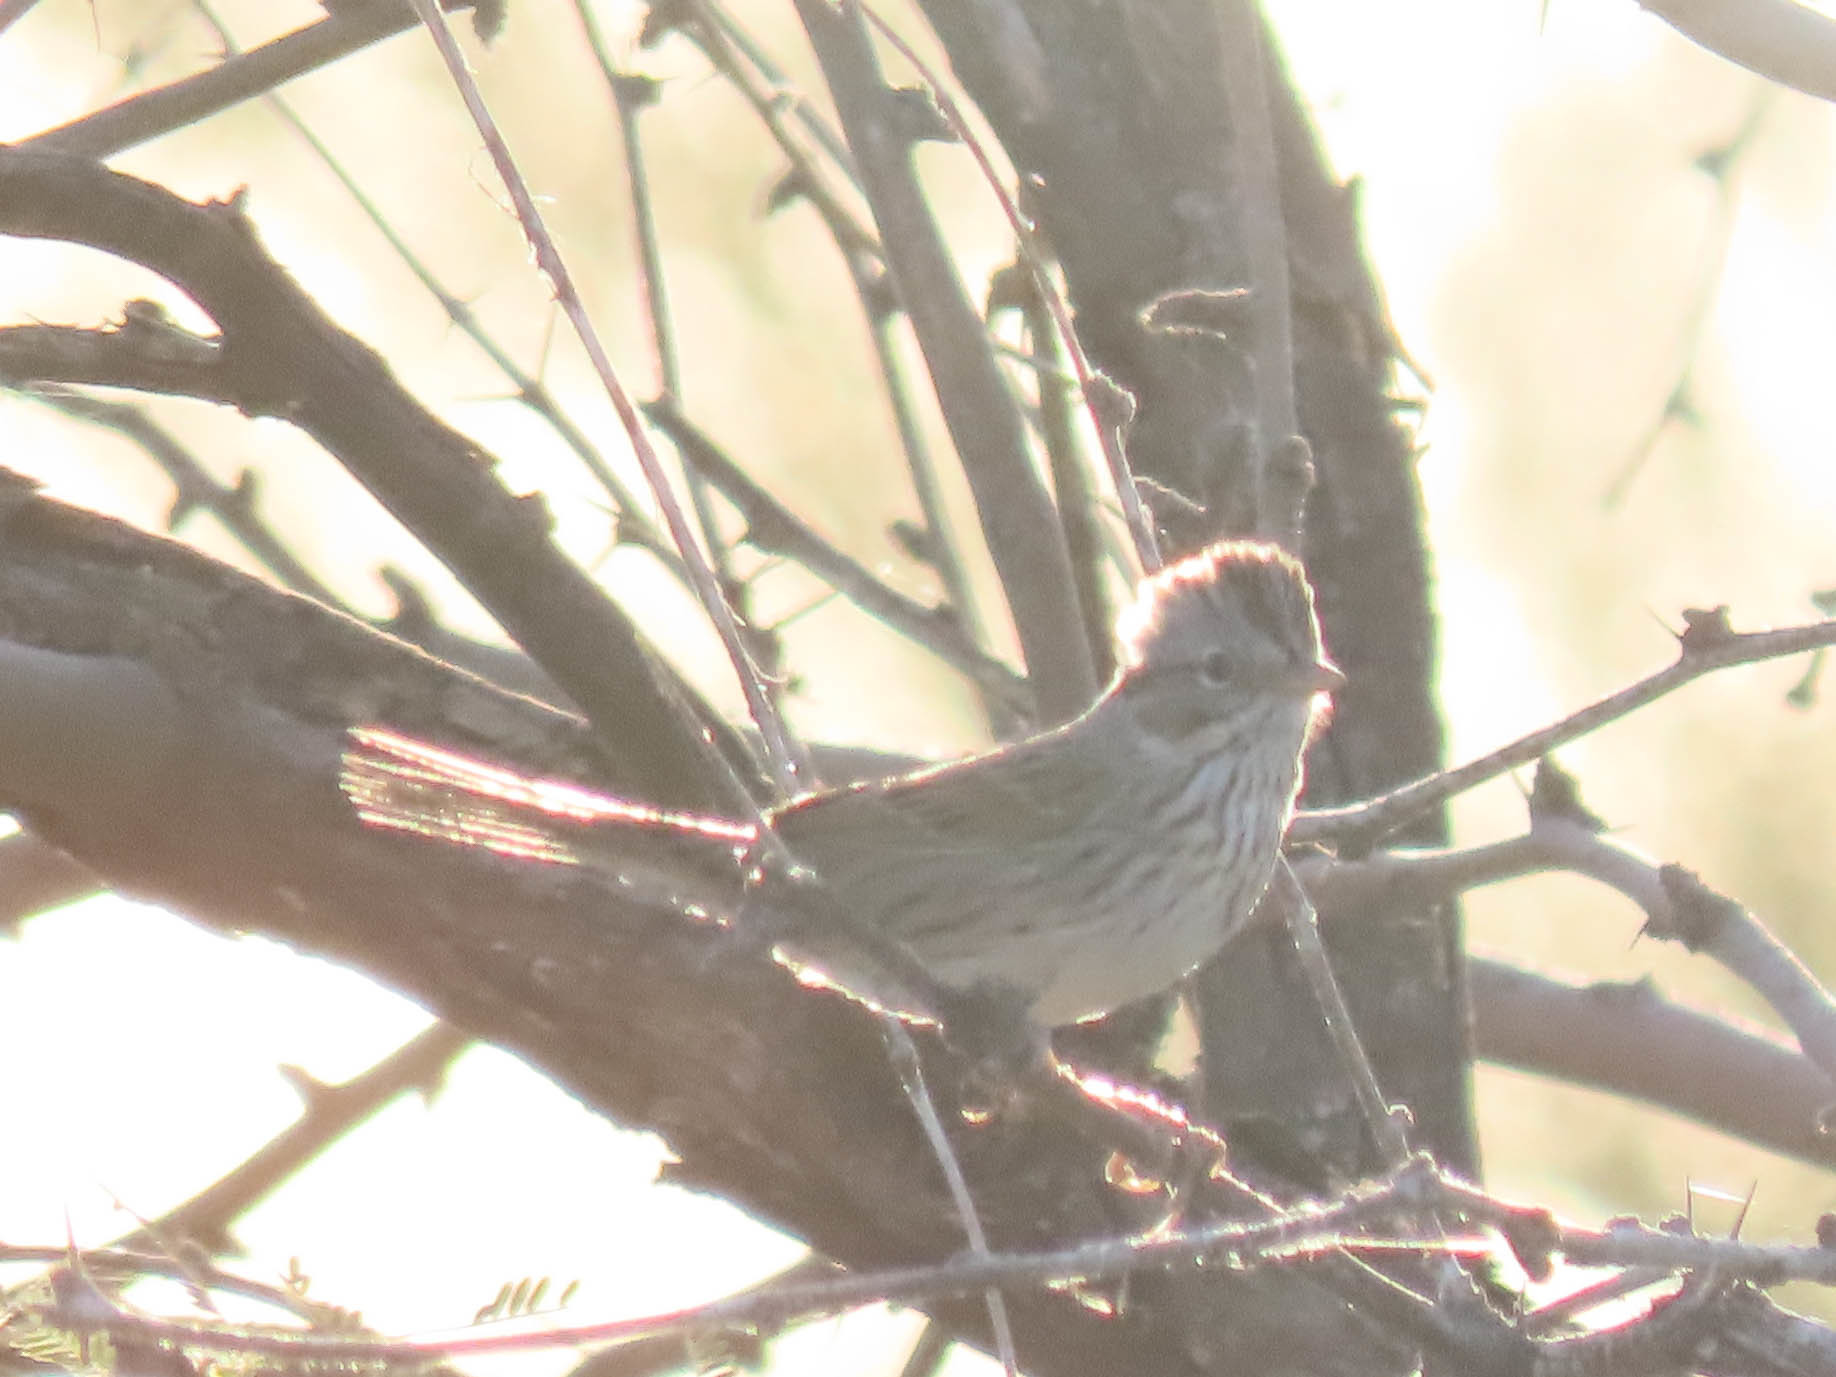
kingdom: Animalia
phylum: Chordata
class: Aves
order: Passeriformes
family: Passerellidae
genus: Melospiza
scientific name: Melospiza lincolnii
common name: Lincoln's sparrow
